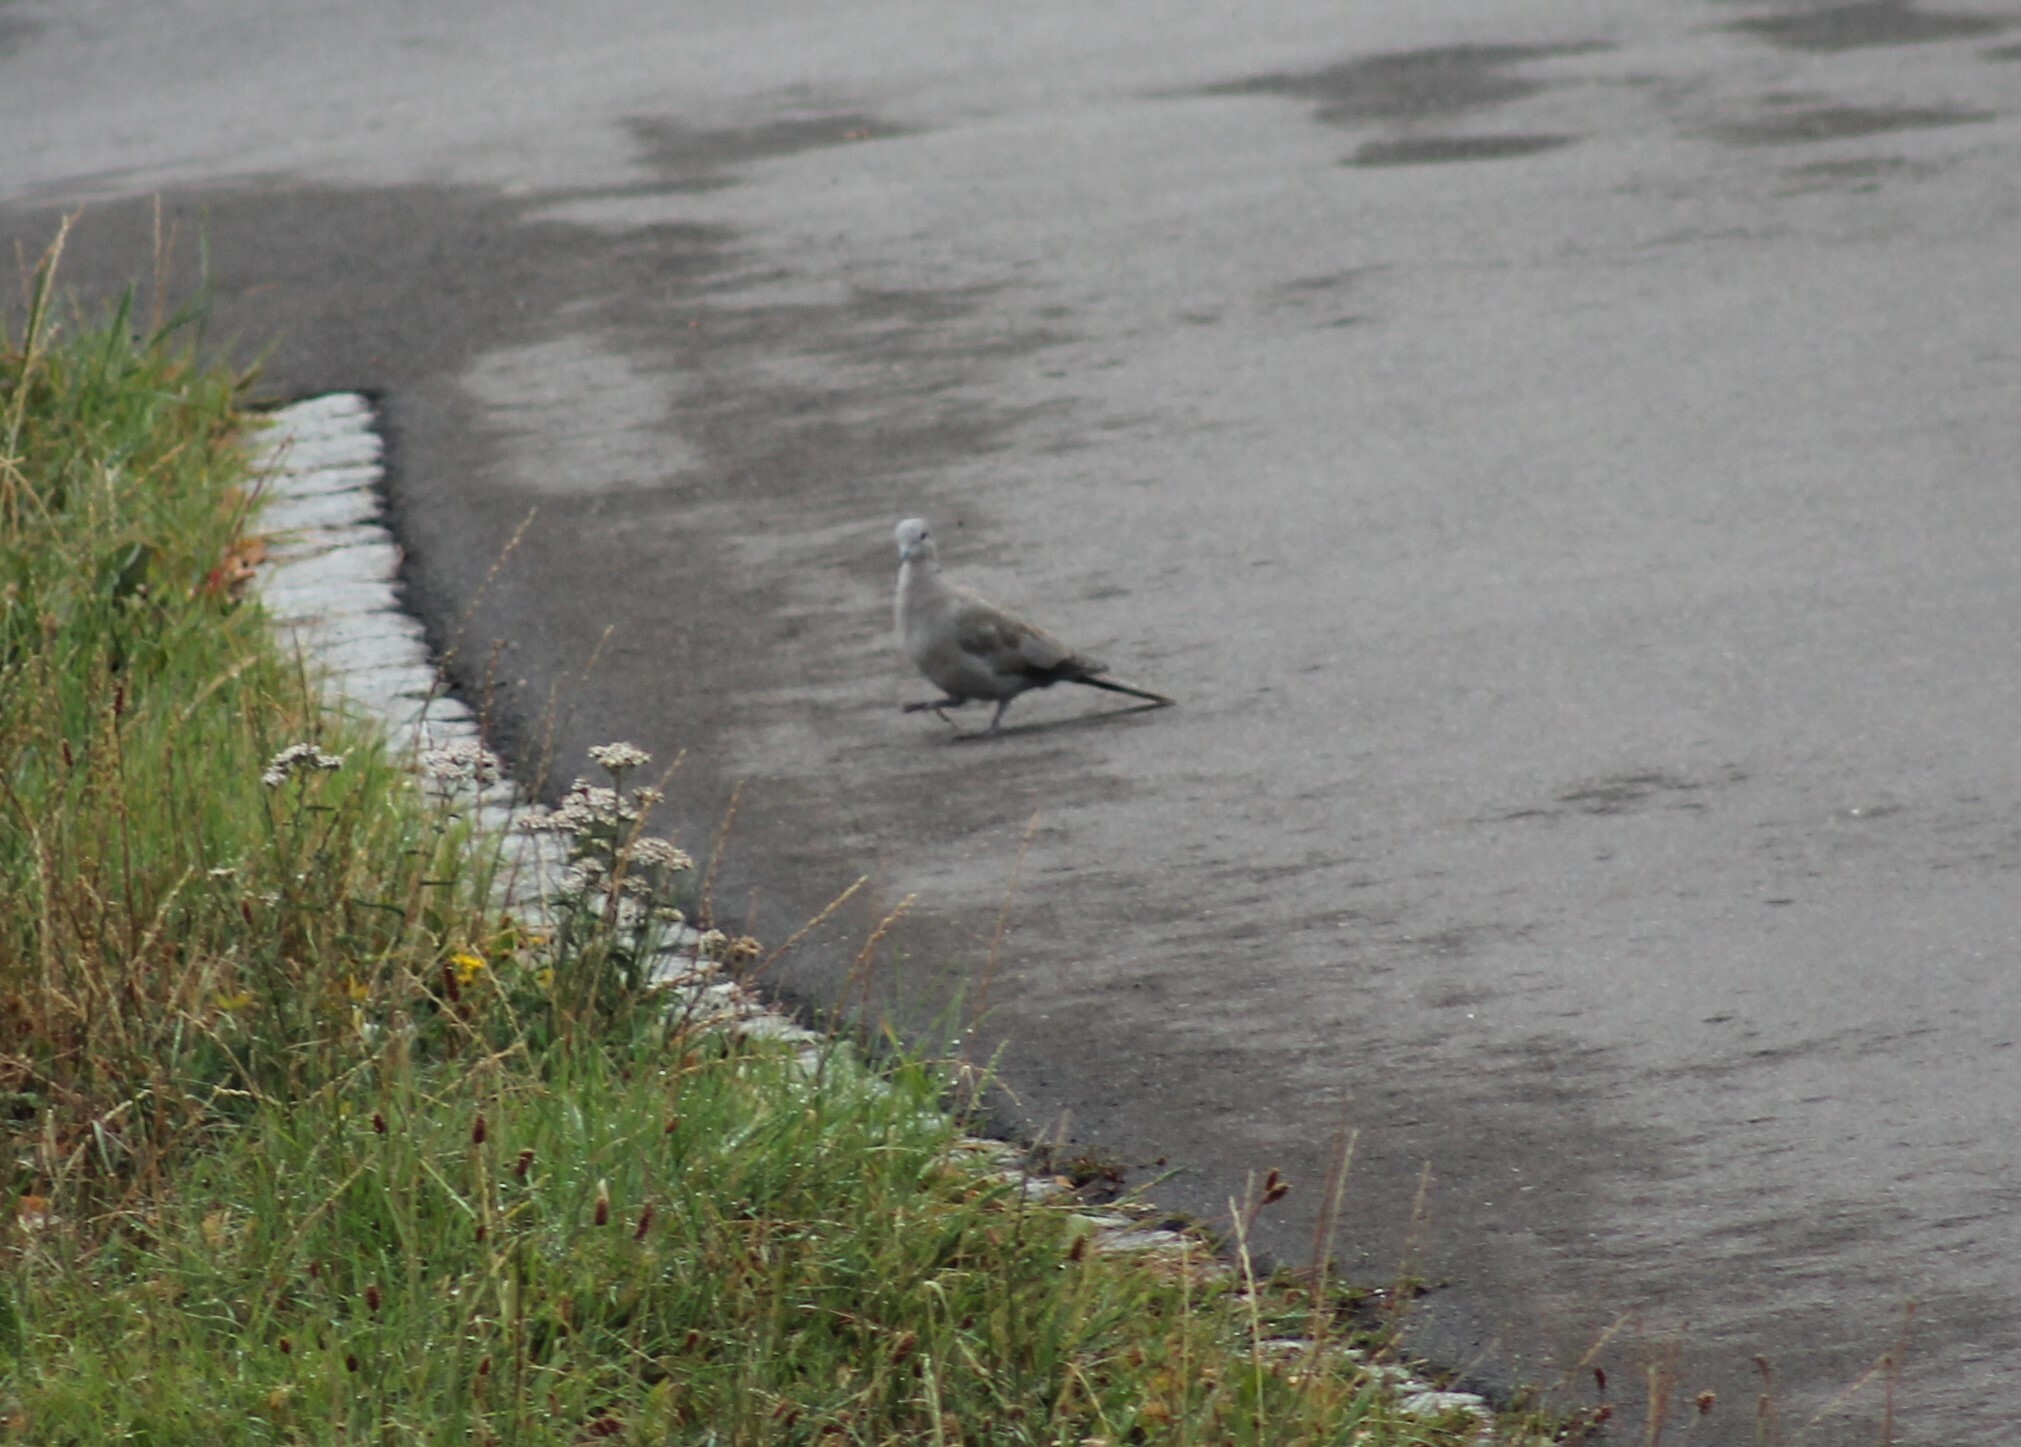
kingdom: Animalia
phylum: Chordata
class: Aves
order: Columbiformes
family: Columbidae
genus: Streptopelia
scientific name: Streptopelia decaocto
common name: Eurasian collared dove
